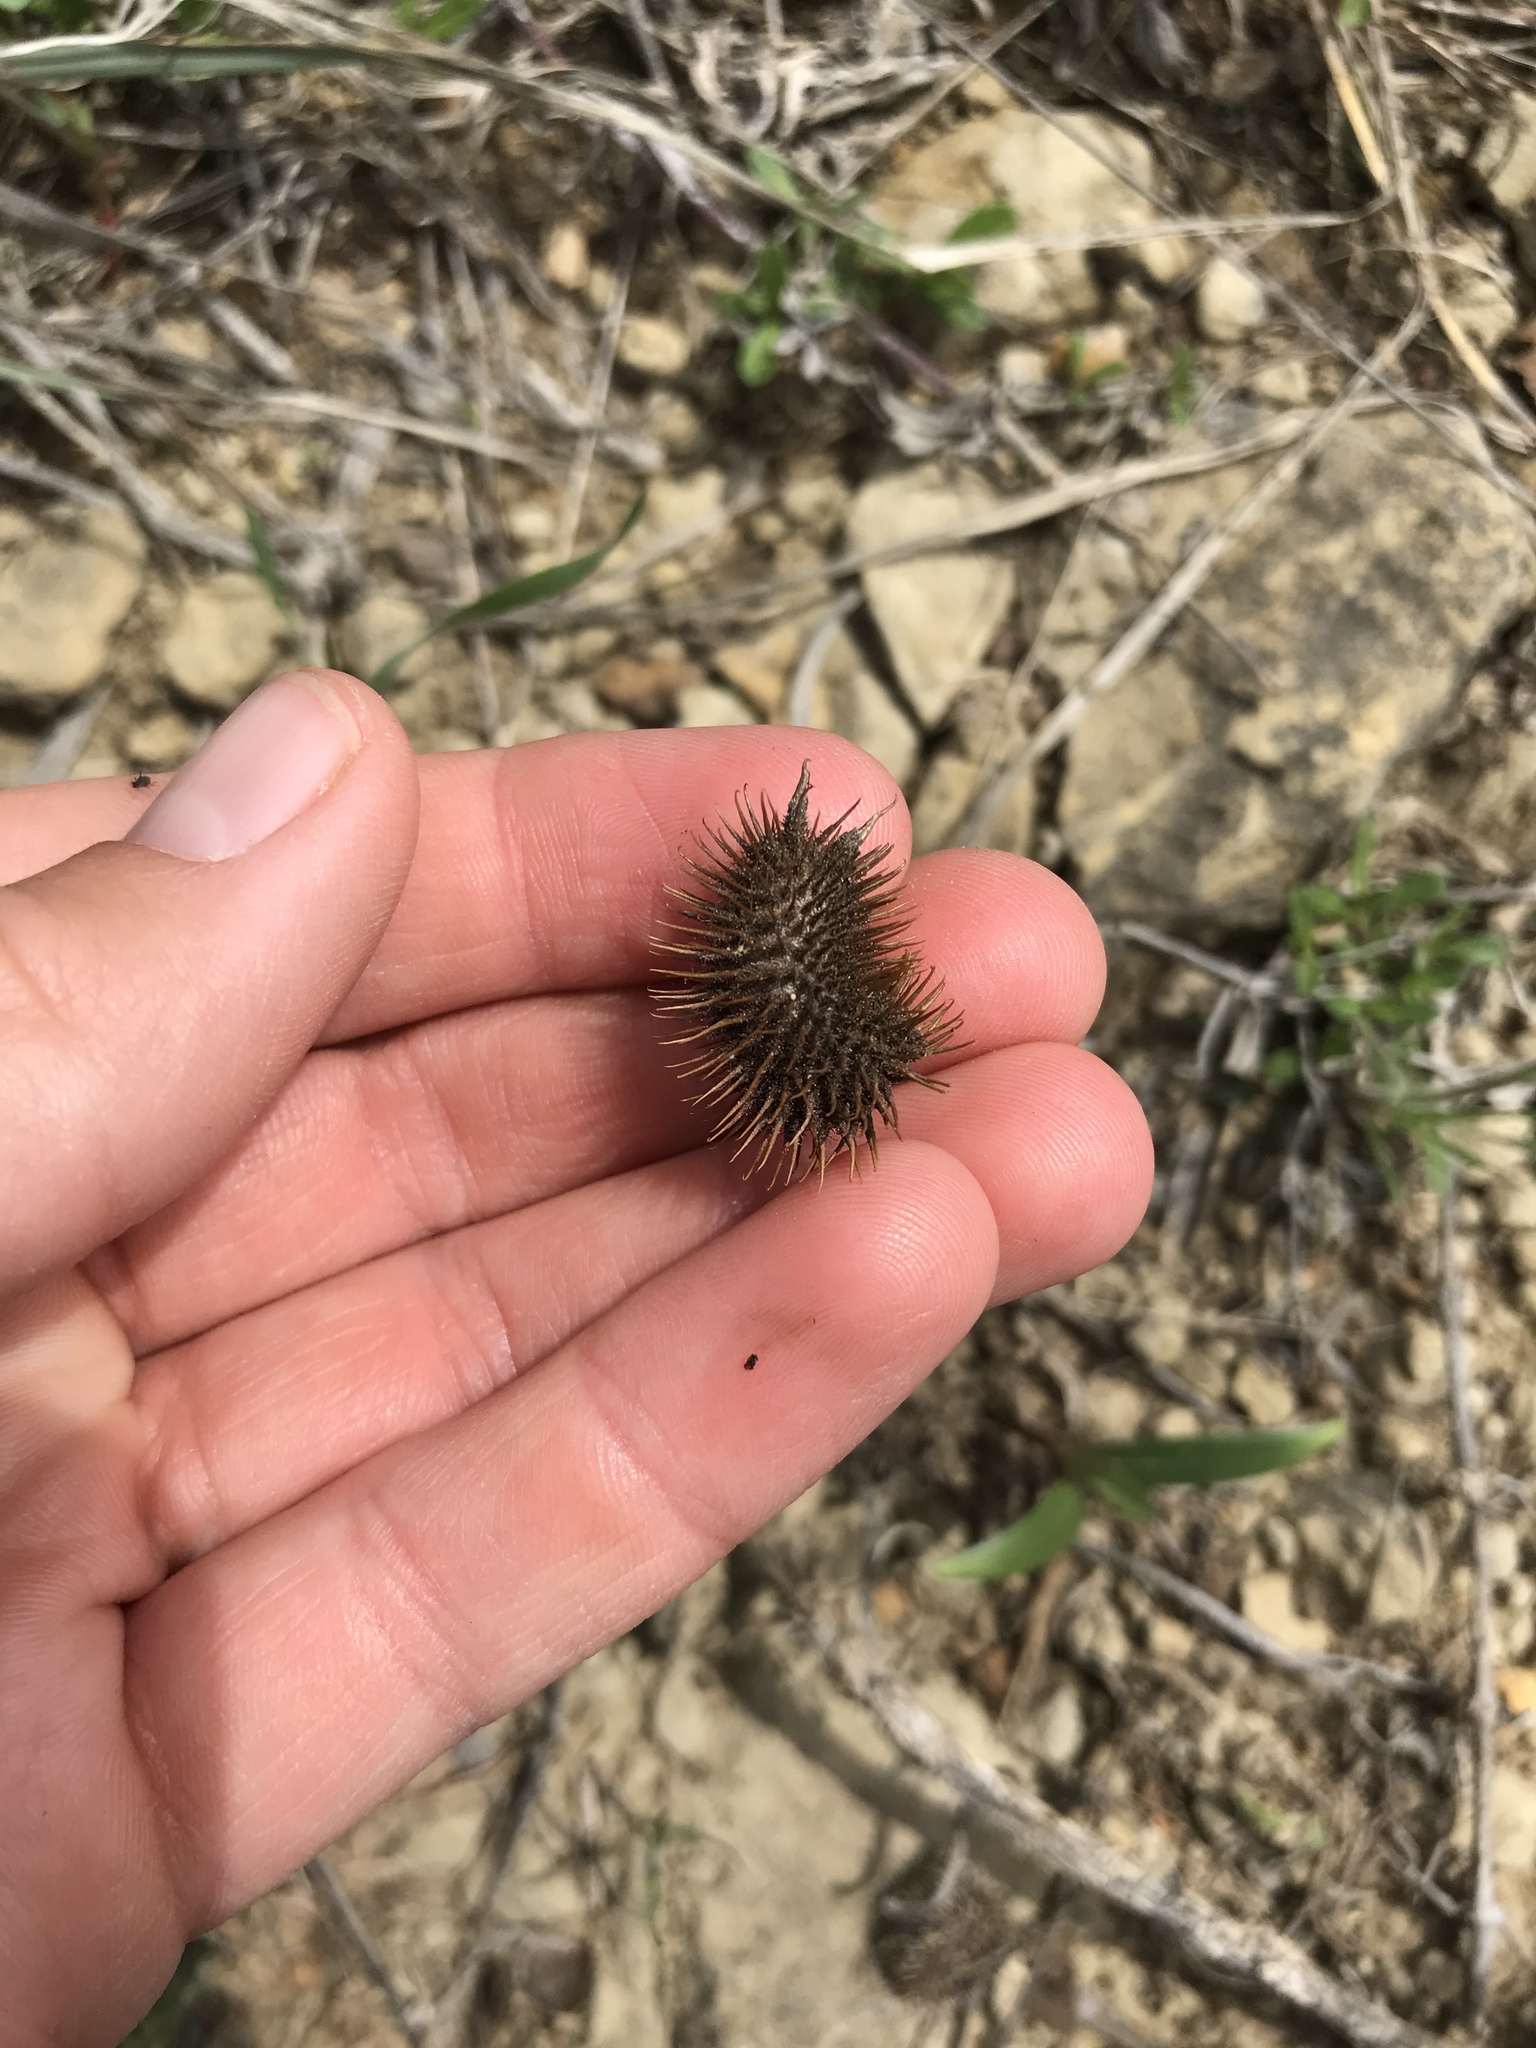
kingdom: Plantae
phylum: Tracheophyta
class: Magnoliopsida
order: Asterales
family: Asteraceae
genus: Xanthium
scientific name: Xanthium strumarium
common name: Rough cocklebur
